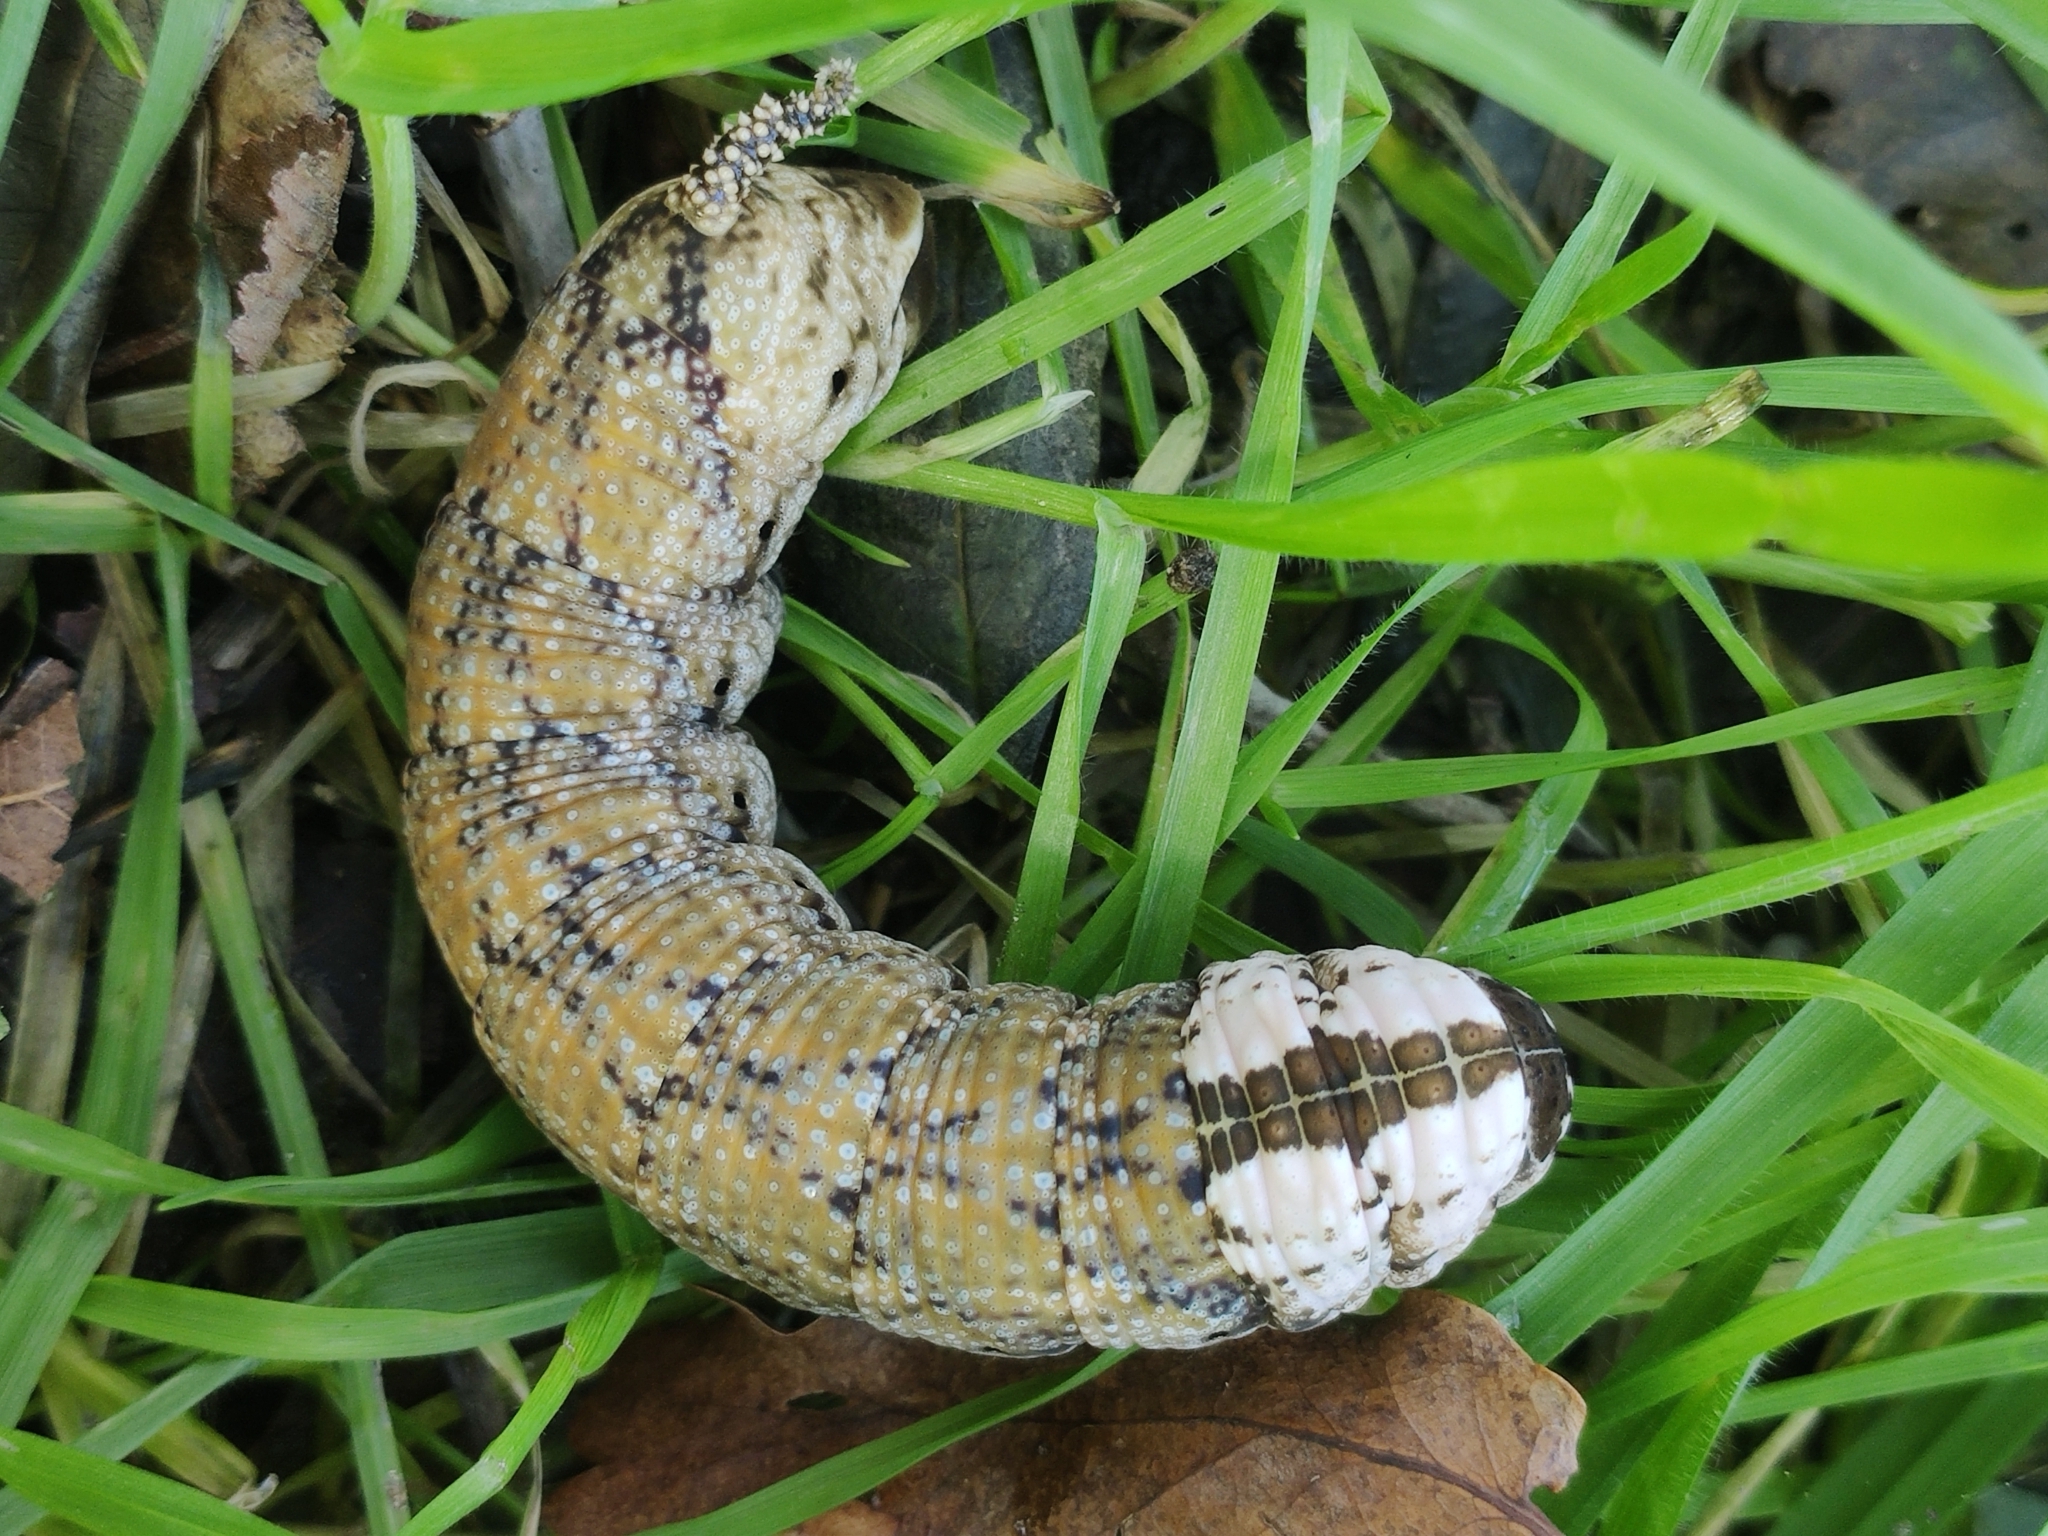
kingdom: Animalia
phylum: Arthropoda
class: Insecta
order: Lepidoptera
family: Sphingidae
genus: Acherontia
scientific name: Acherontia atropos
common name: Death's-head hawk moth
